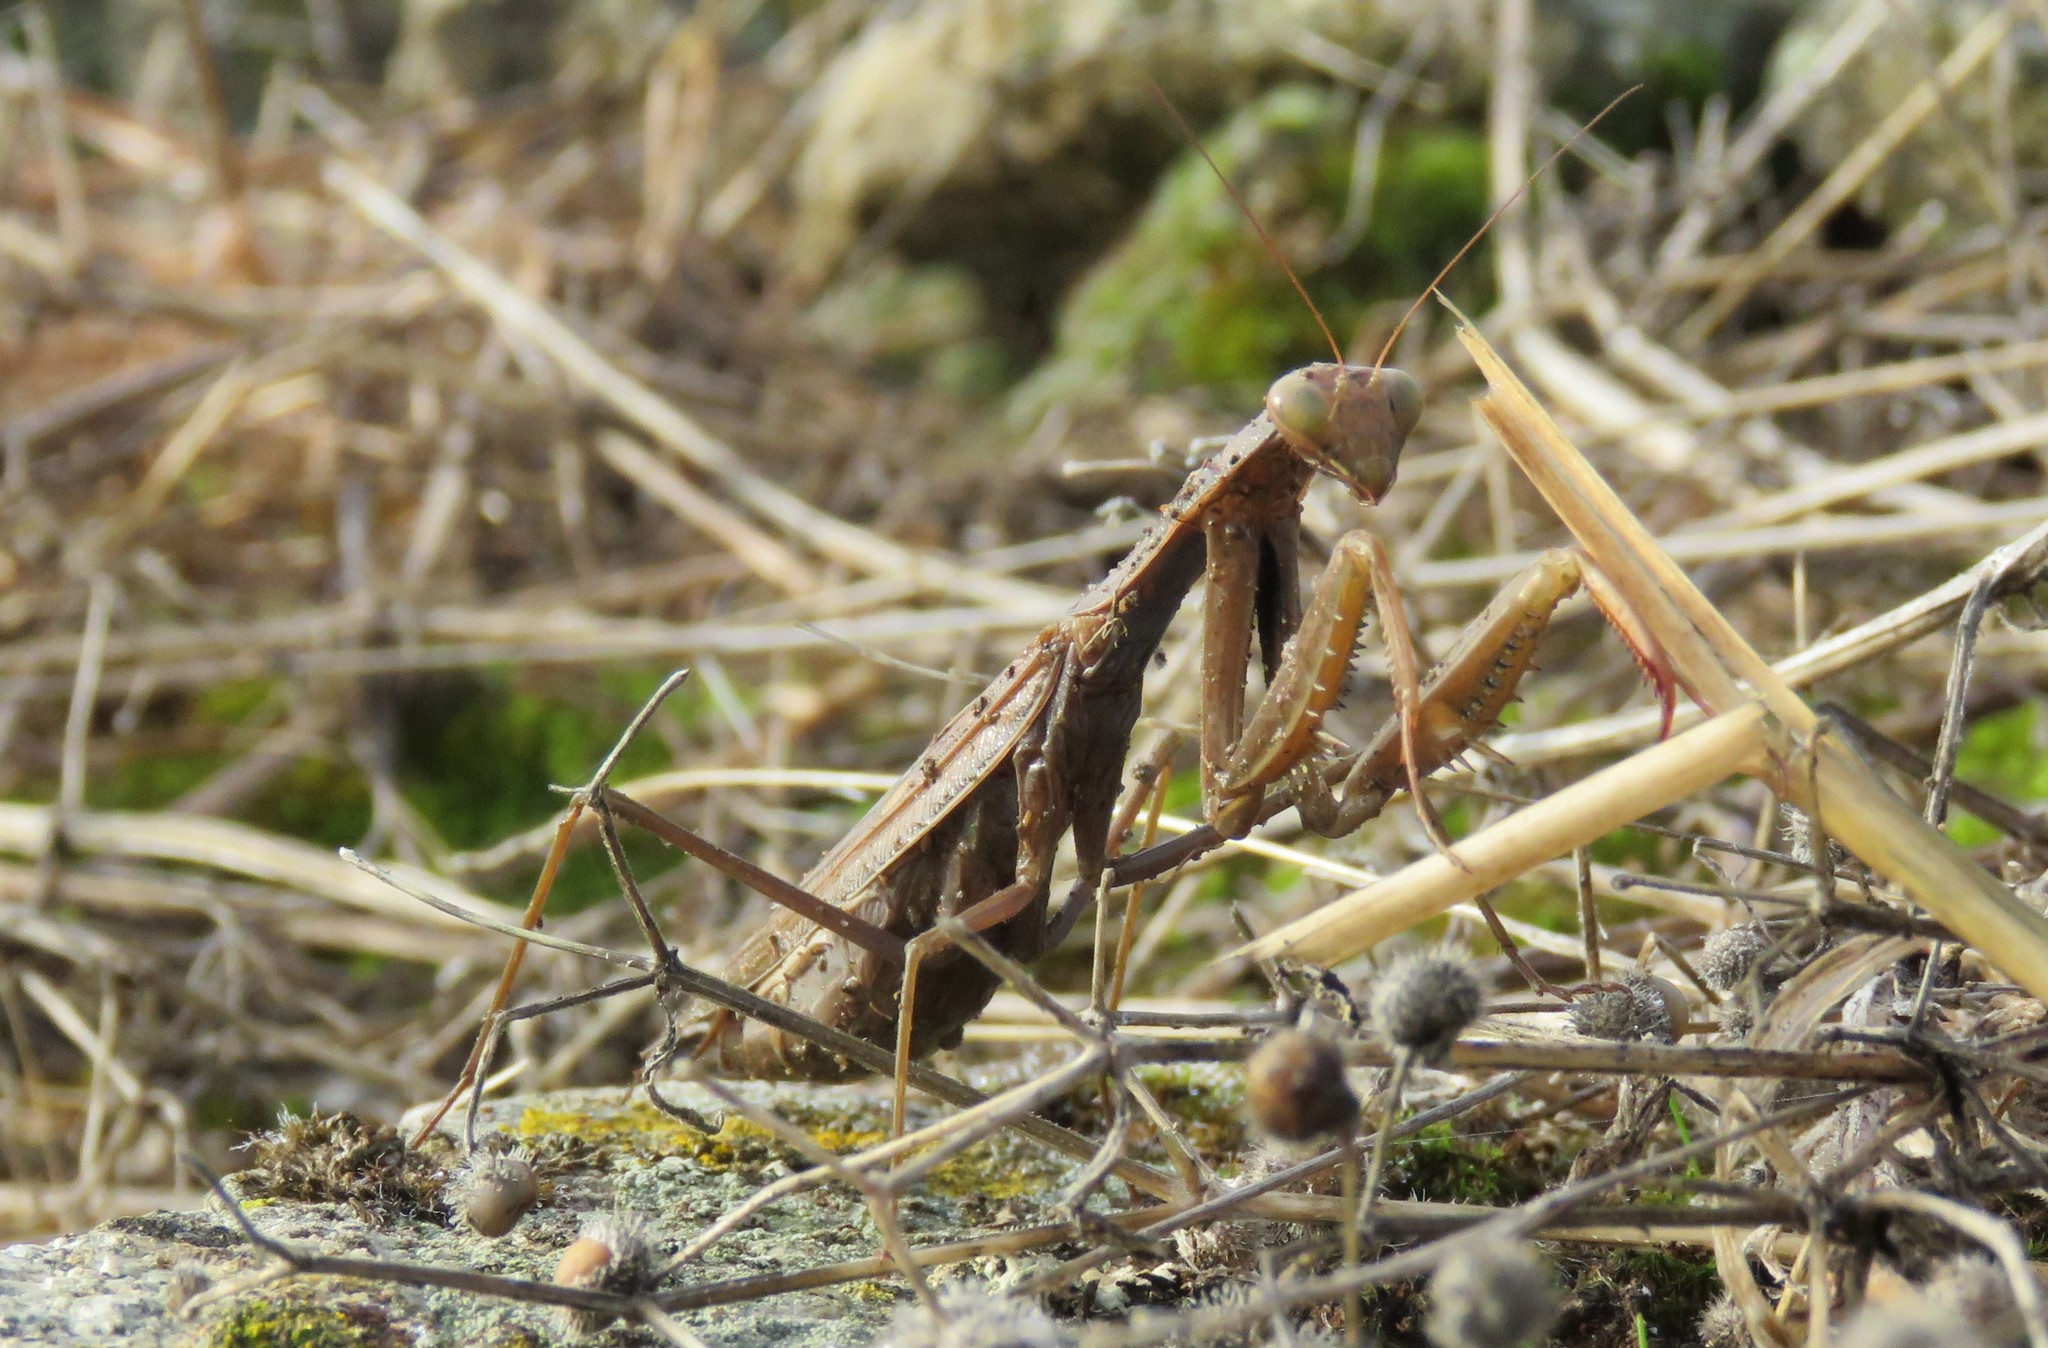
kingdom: Animalia
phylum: Arthropoda
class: Insecta
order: Mantodea
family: Mantidae
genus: Mantis
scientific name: Mantis religiosa
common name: Praying mantis
